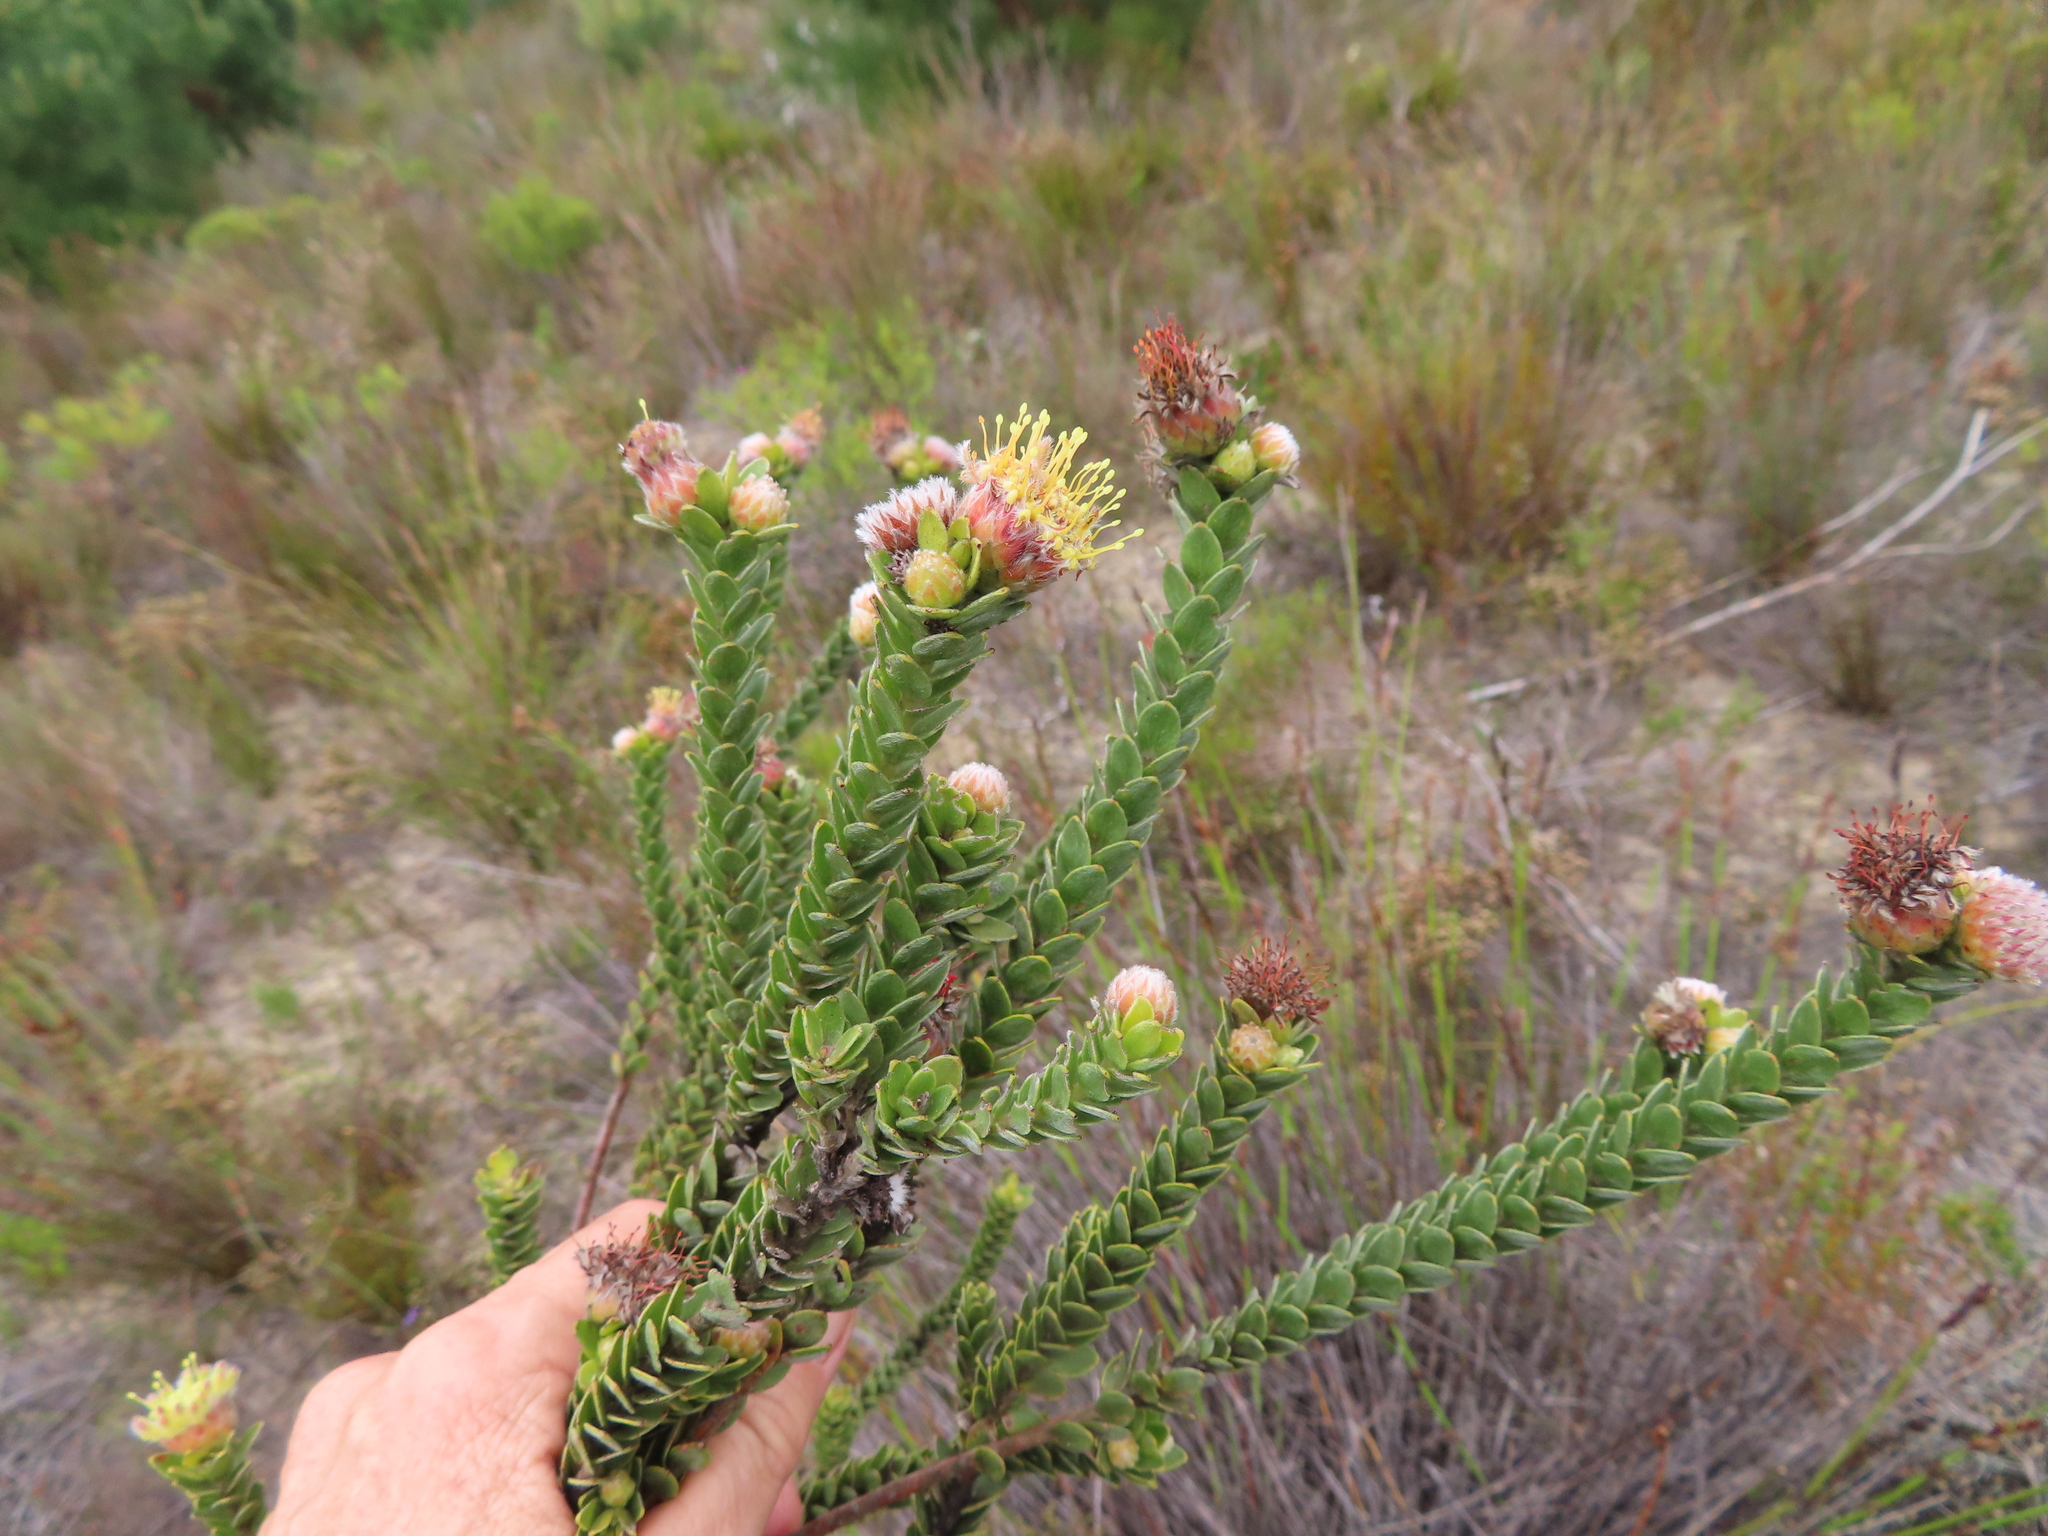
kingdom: Plantae
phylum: Tracheophyta
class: Magnoliopsida
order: Proteales
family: Proteaceae
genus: Leucospermum
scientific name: Leucospermum truncatulum
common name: Oval-leaf pincushion
